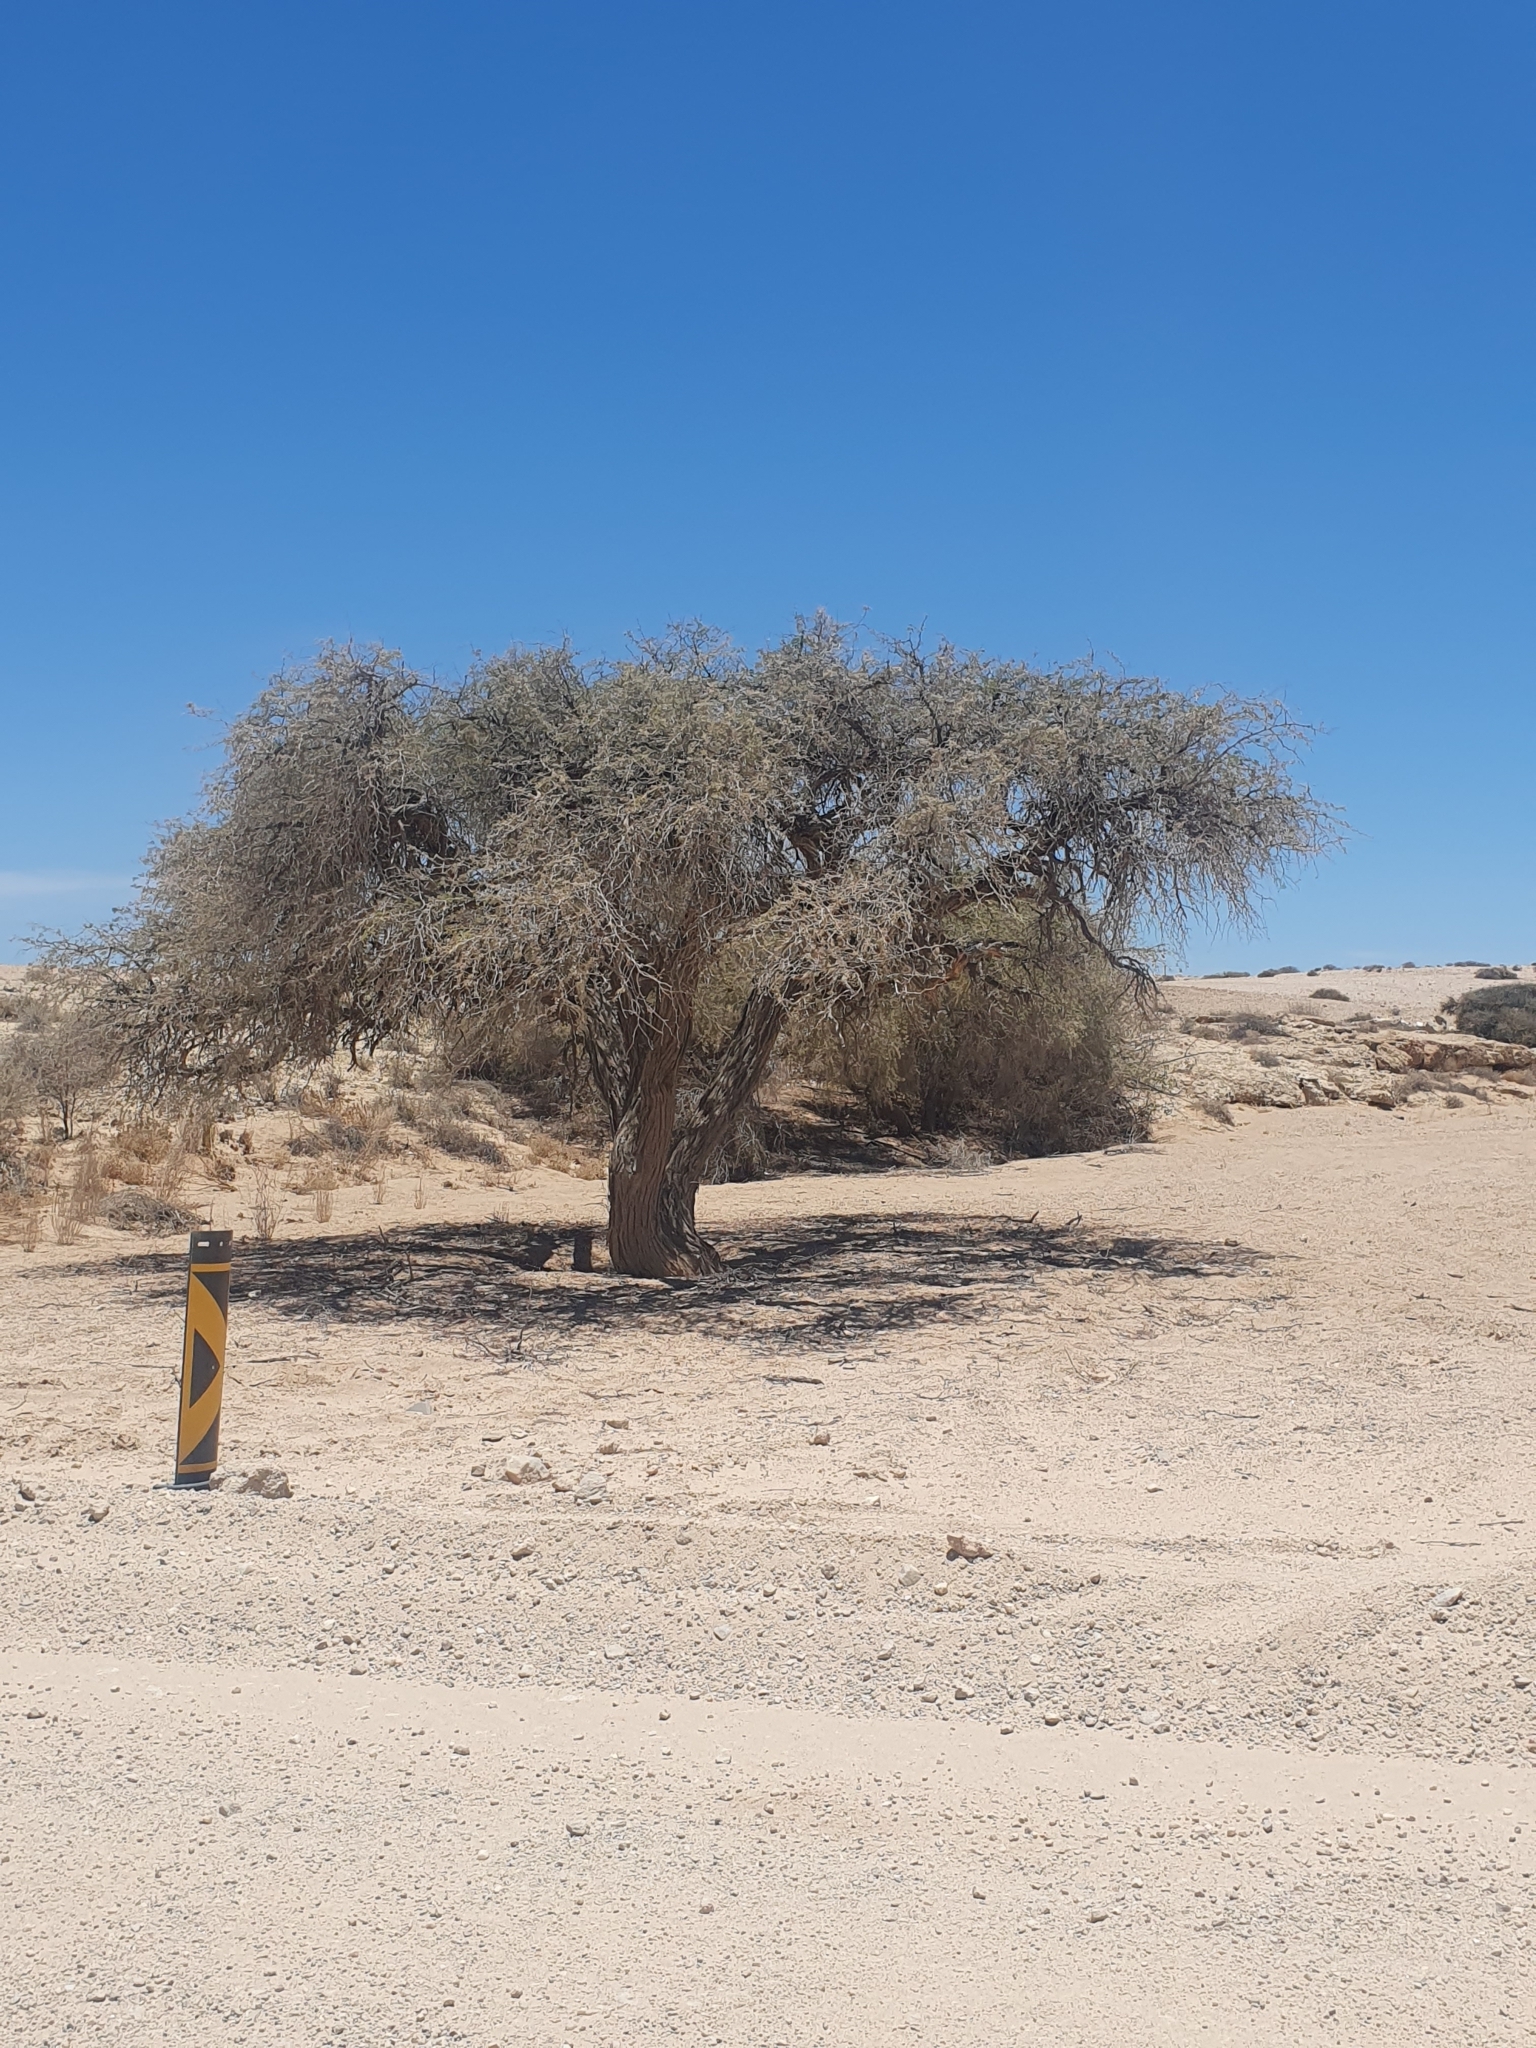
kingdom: Plantae
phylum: Tracheophyta
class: Magnoliopsida
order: Fabales
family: Fabaceae
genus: Vachellia
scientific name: Vachellia erioloba
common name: Camel thorn
